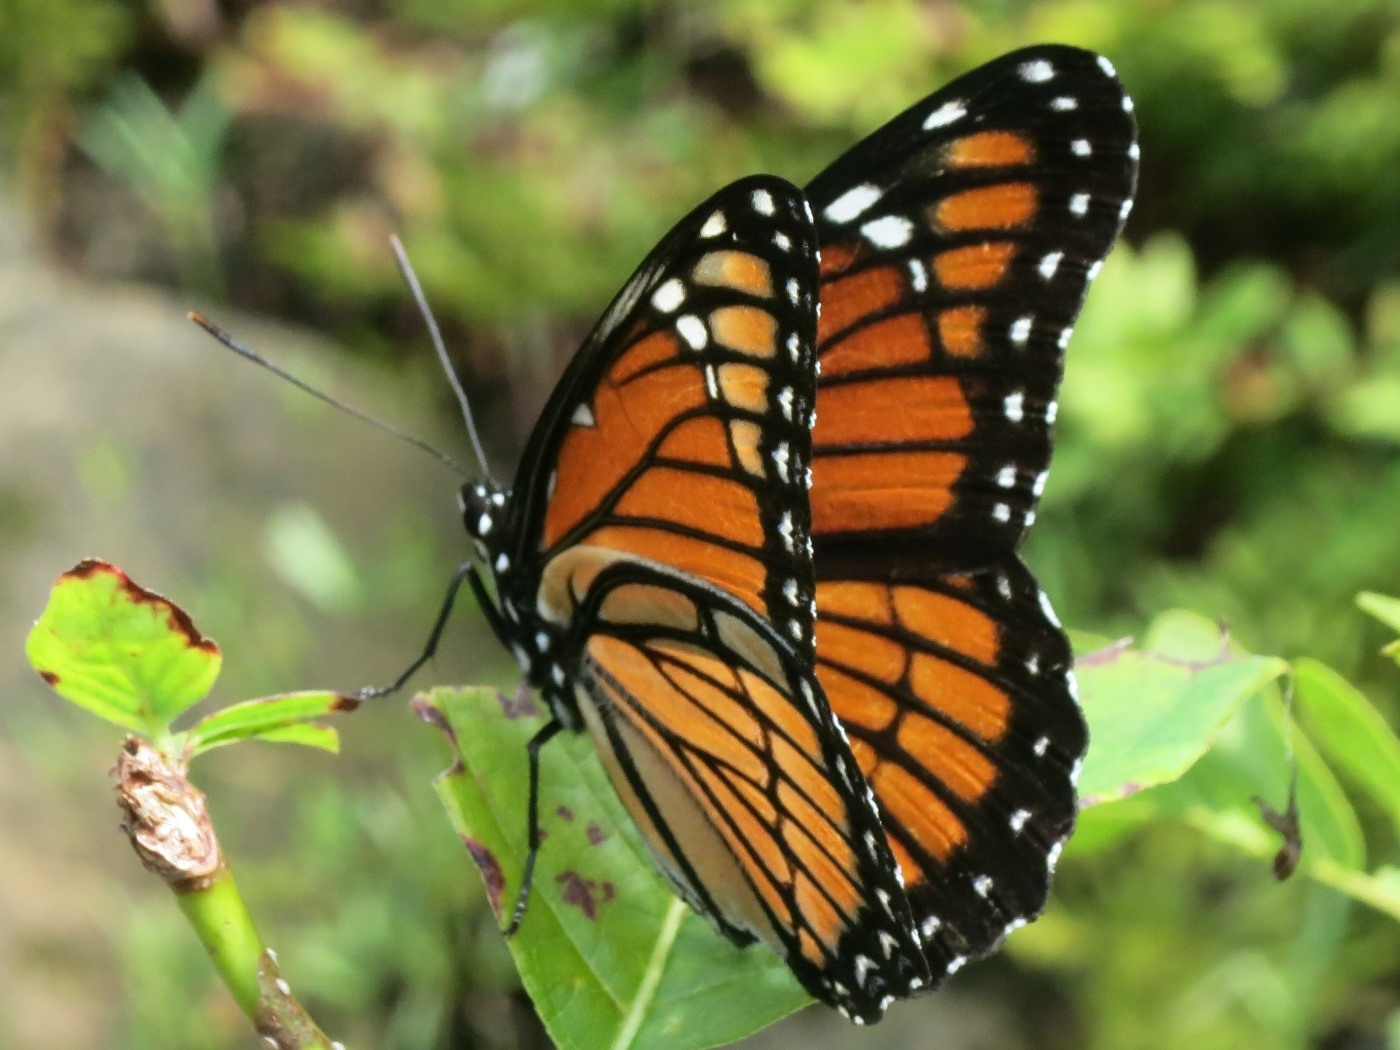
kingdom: Animalia
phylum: Arthropoda
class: Insecta
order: Lepidoptera
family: Nymphalidae
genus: Limenitis
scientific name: Limenitis archippus
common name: Viceroy
